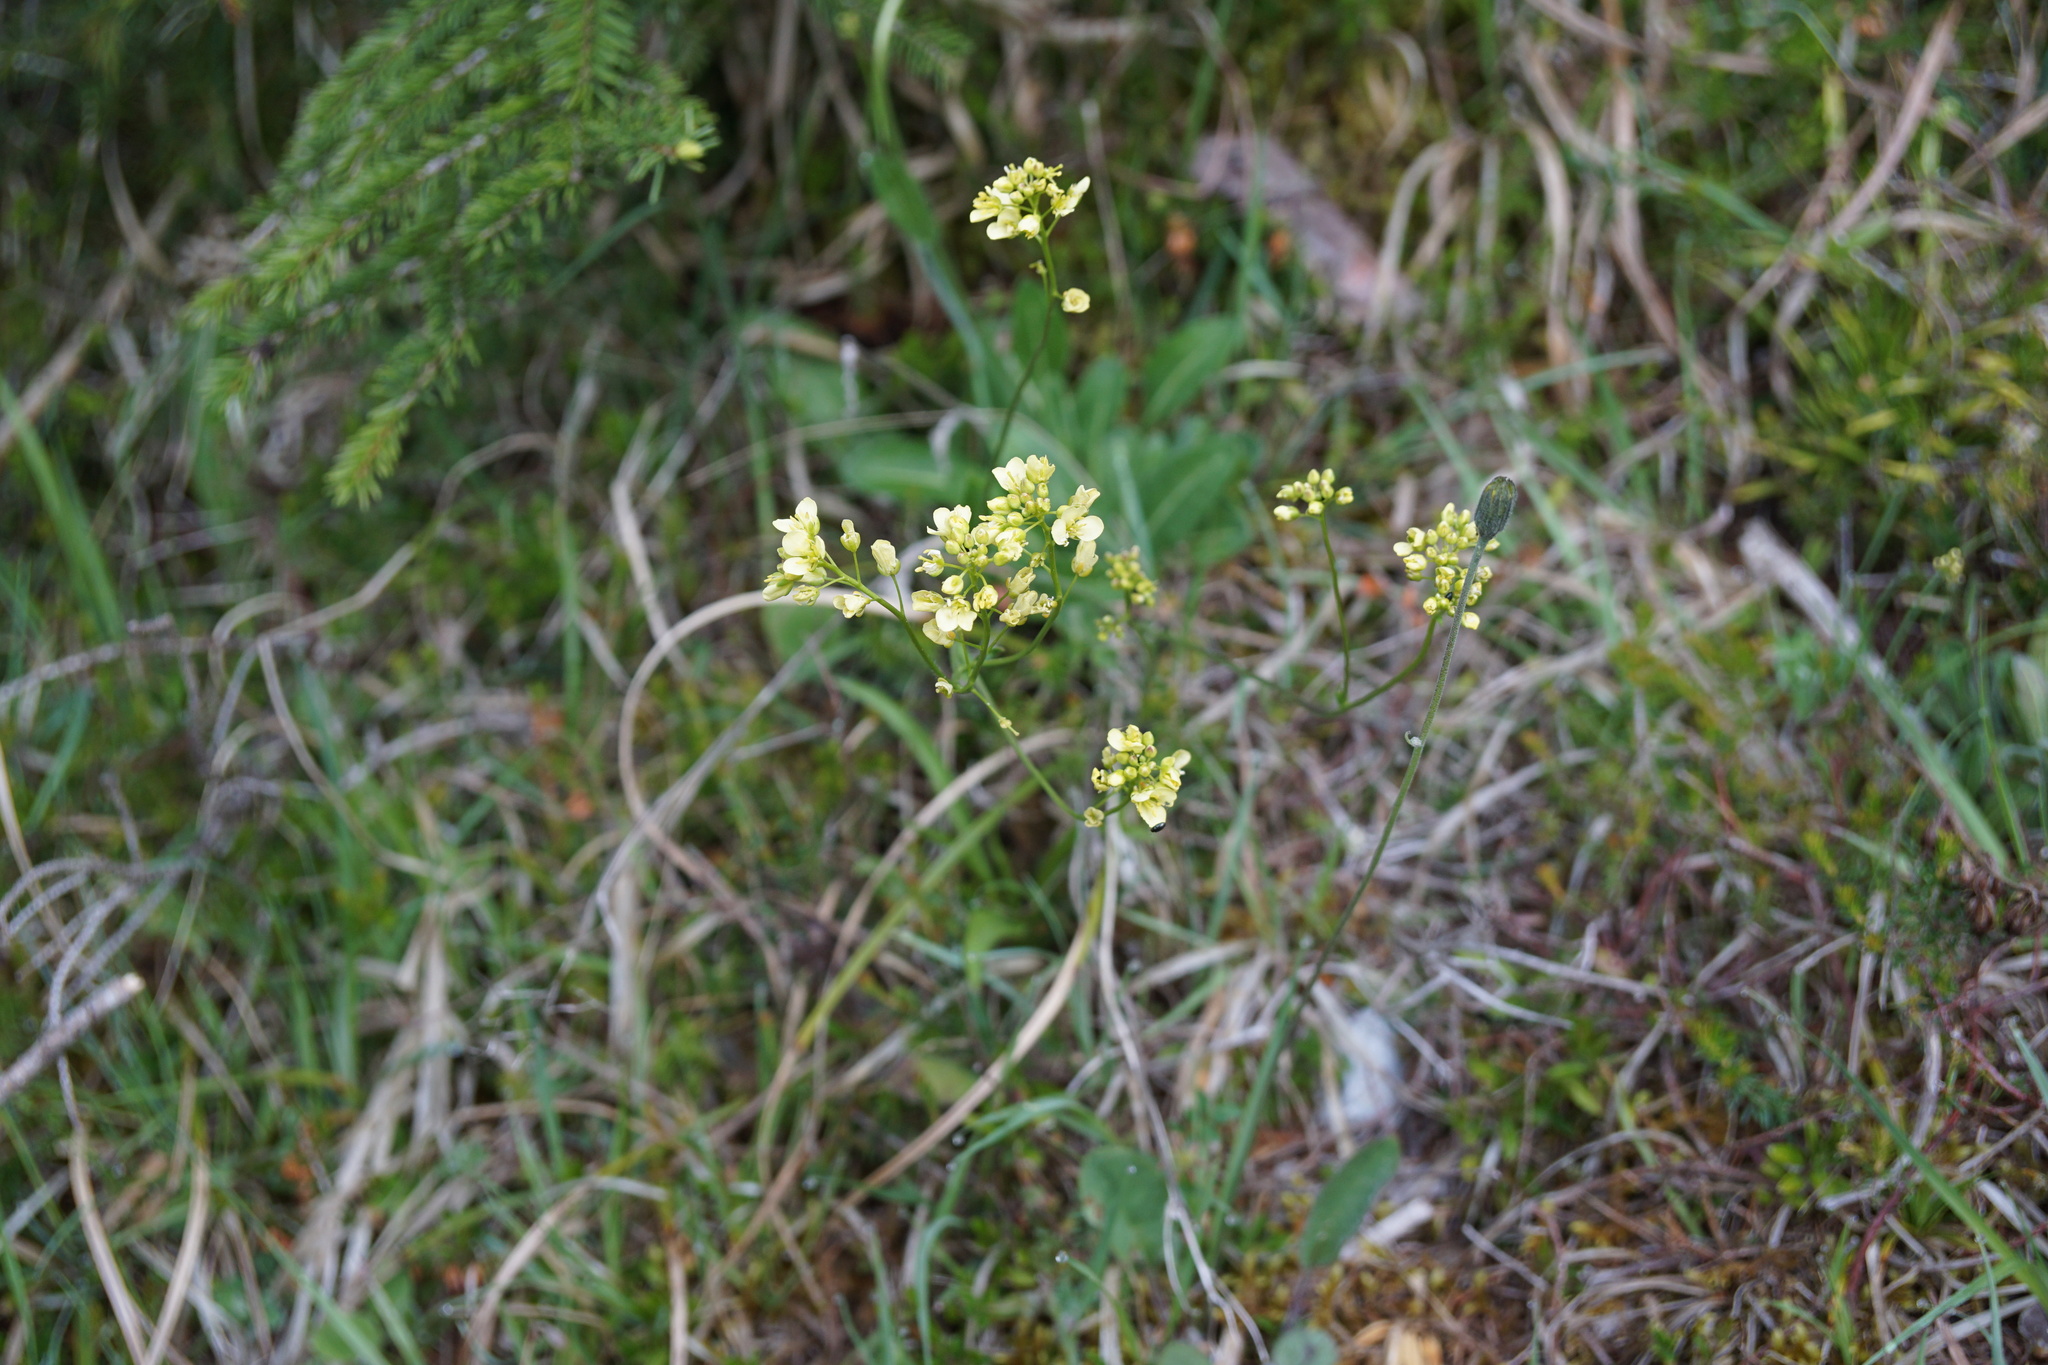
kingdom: Plantae
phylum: Tracheophyta
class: Magnoliopsida
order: Brassicales
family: Brassicaceae
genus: Biscutella
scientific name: Biscutella laevigata
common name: Buckler mustard
